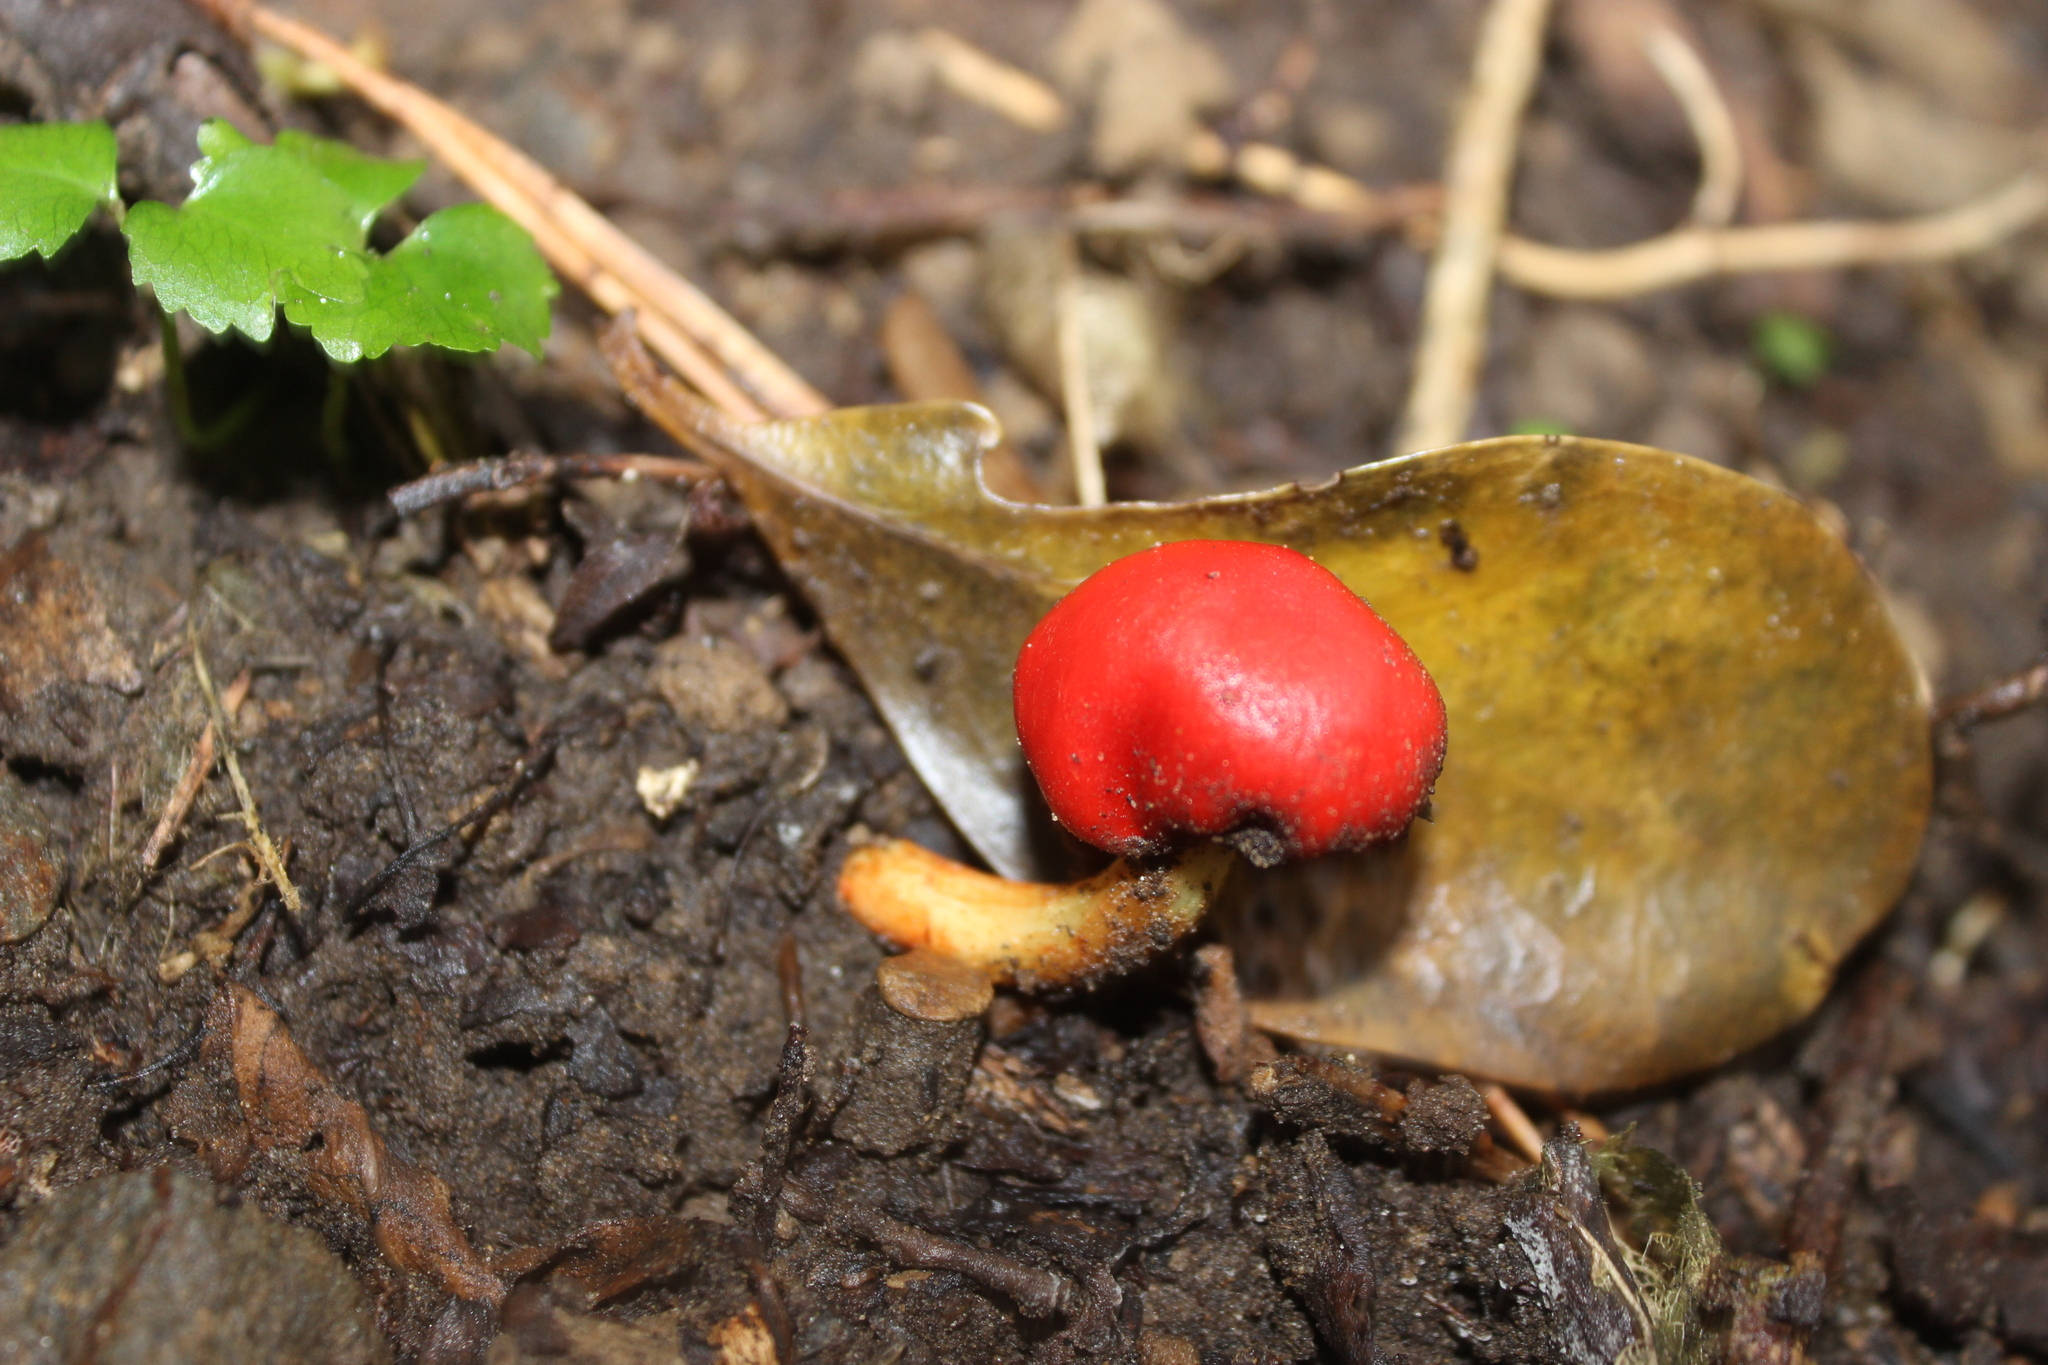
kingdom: Fungi
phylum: Basidiomycota
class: Agaricomycetes
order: Agaricales
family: Strophariaceae
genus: Leratiomyces
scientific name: Leratiomyces erythrocephalus
